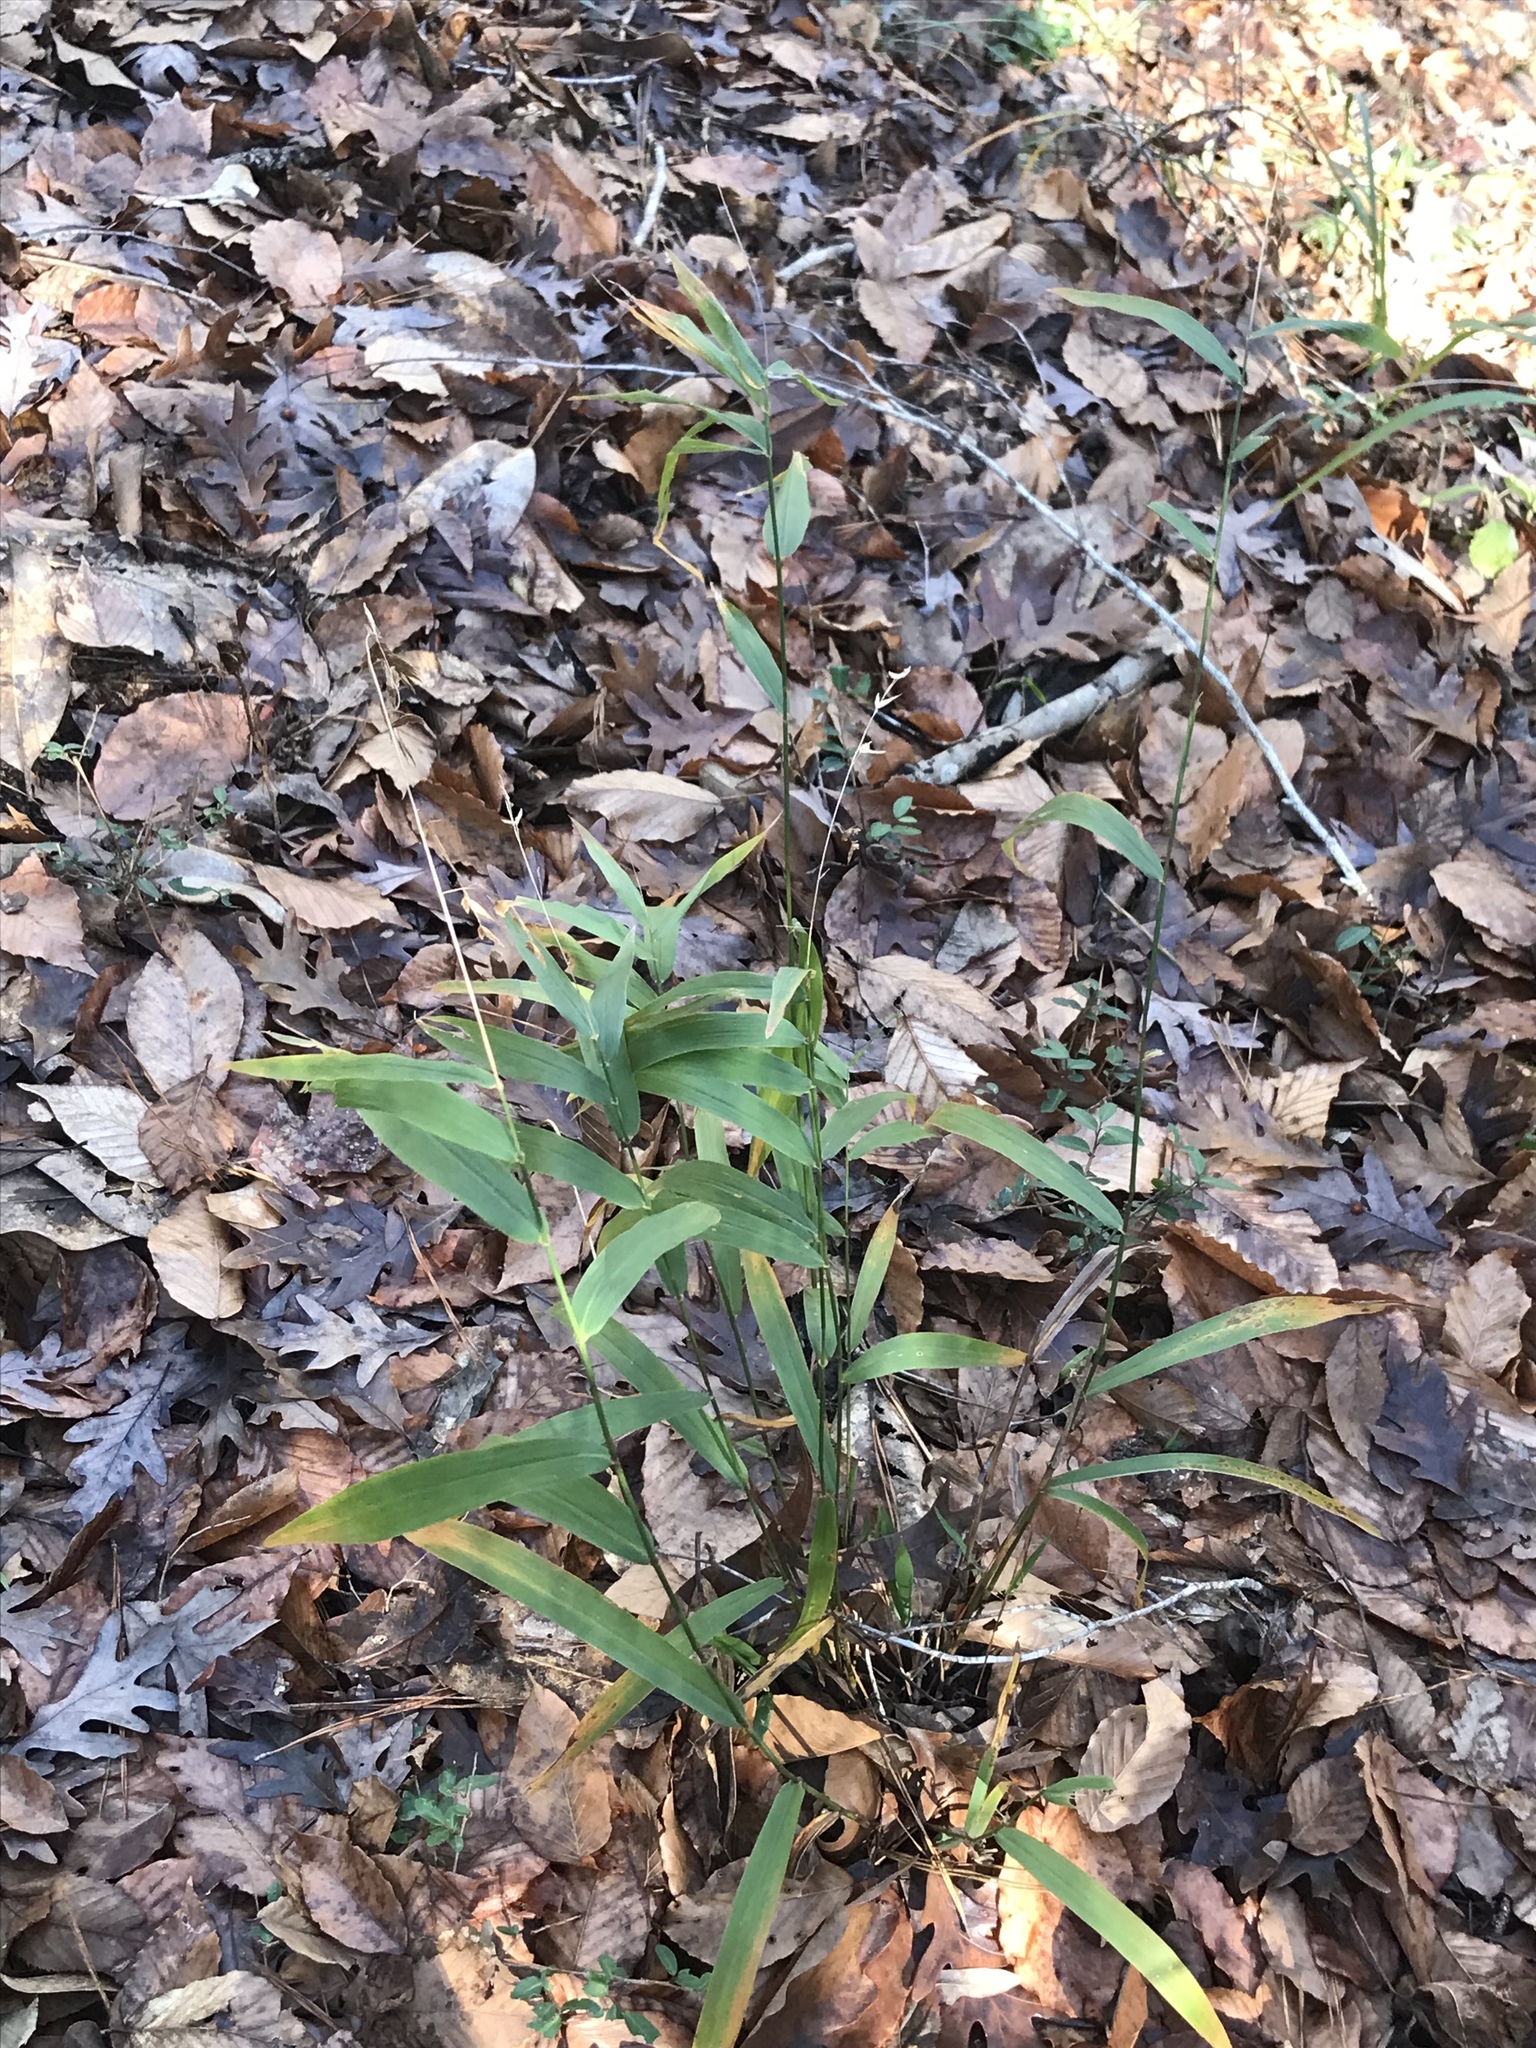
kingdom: Plantae
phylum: Tracheophyta
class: Liliopsida
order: Poales
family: Poaceae
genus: Chasmanthium
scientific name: Chasmanthium latifolium
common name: Broad-leaved chasmanthium
